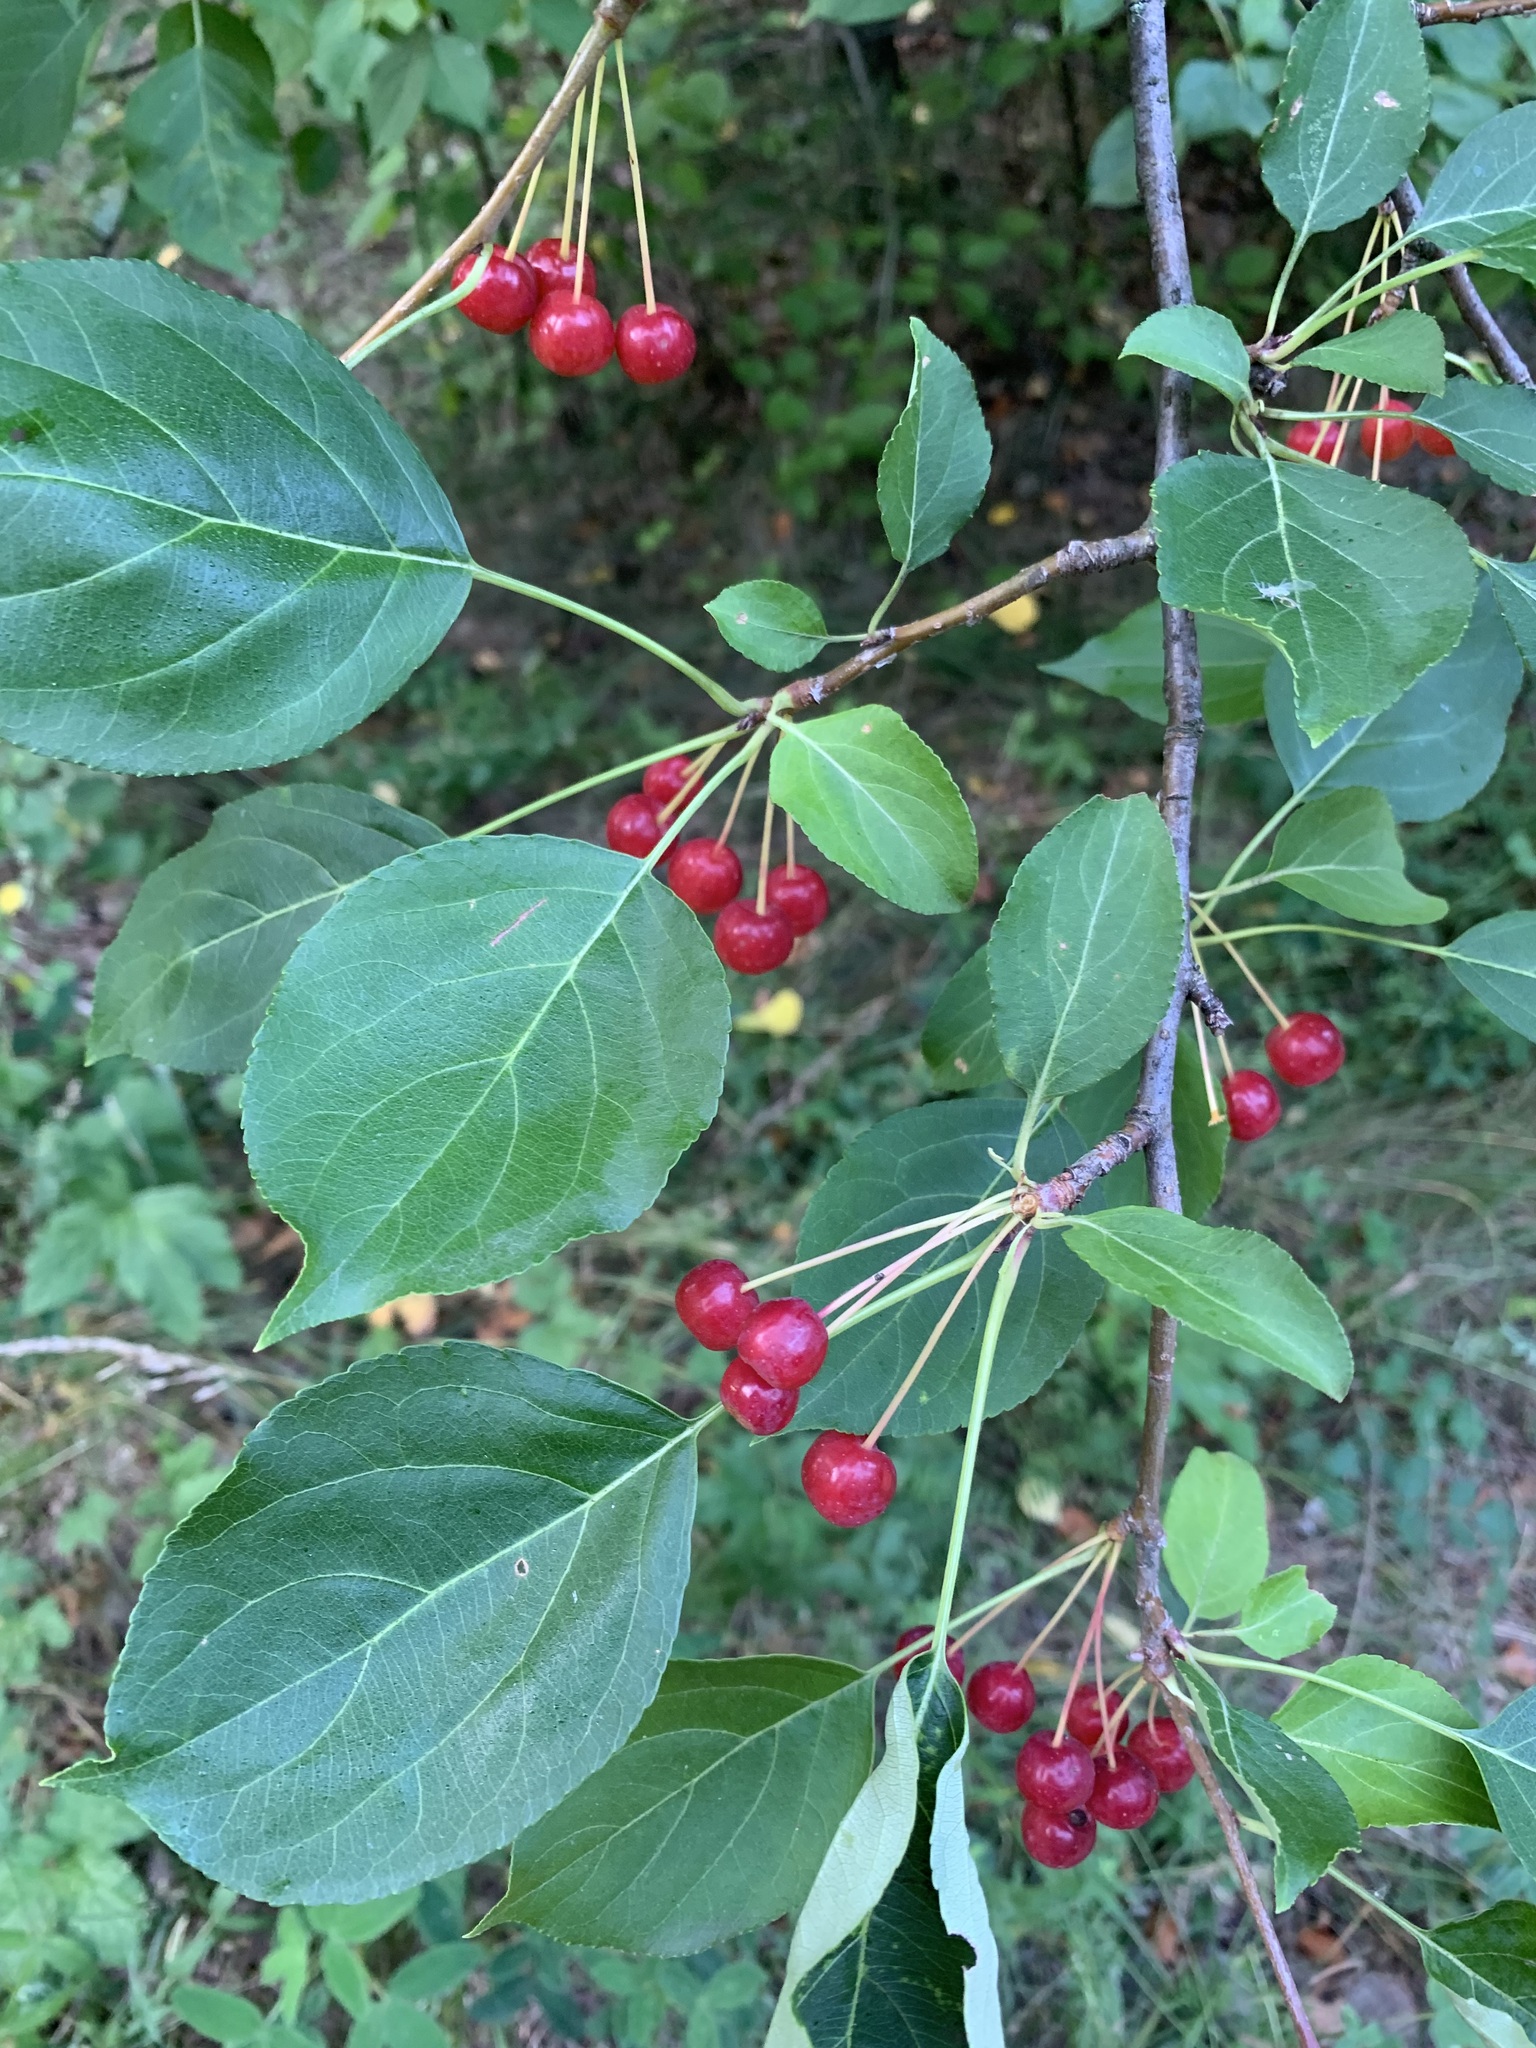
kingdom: Plantae
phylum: Tracheophyta
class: Magnoliopsida
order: Rosales
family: Rosaceae
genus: Malus
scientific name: Malus baccata
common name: Siberian crab
